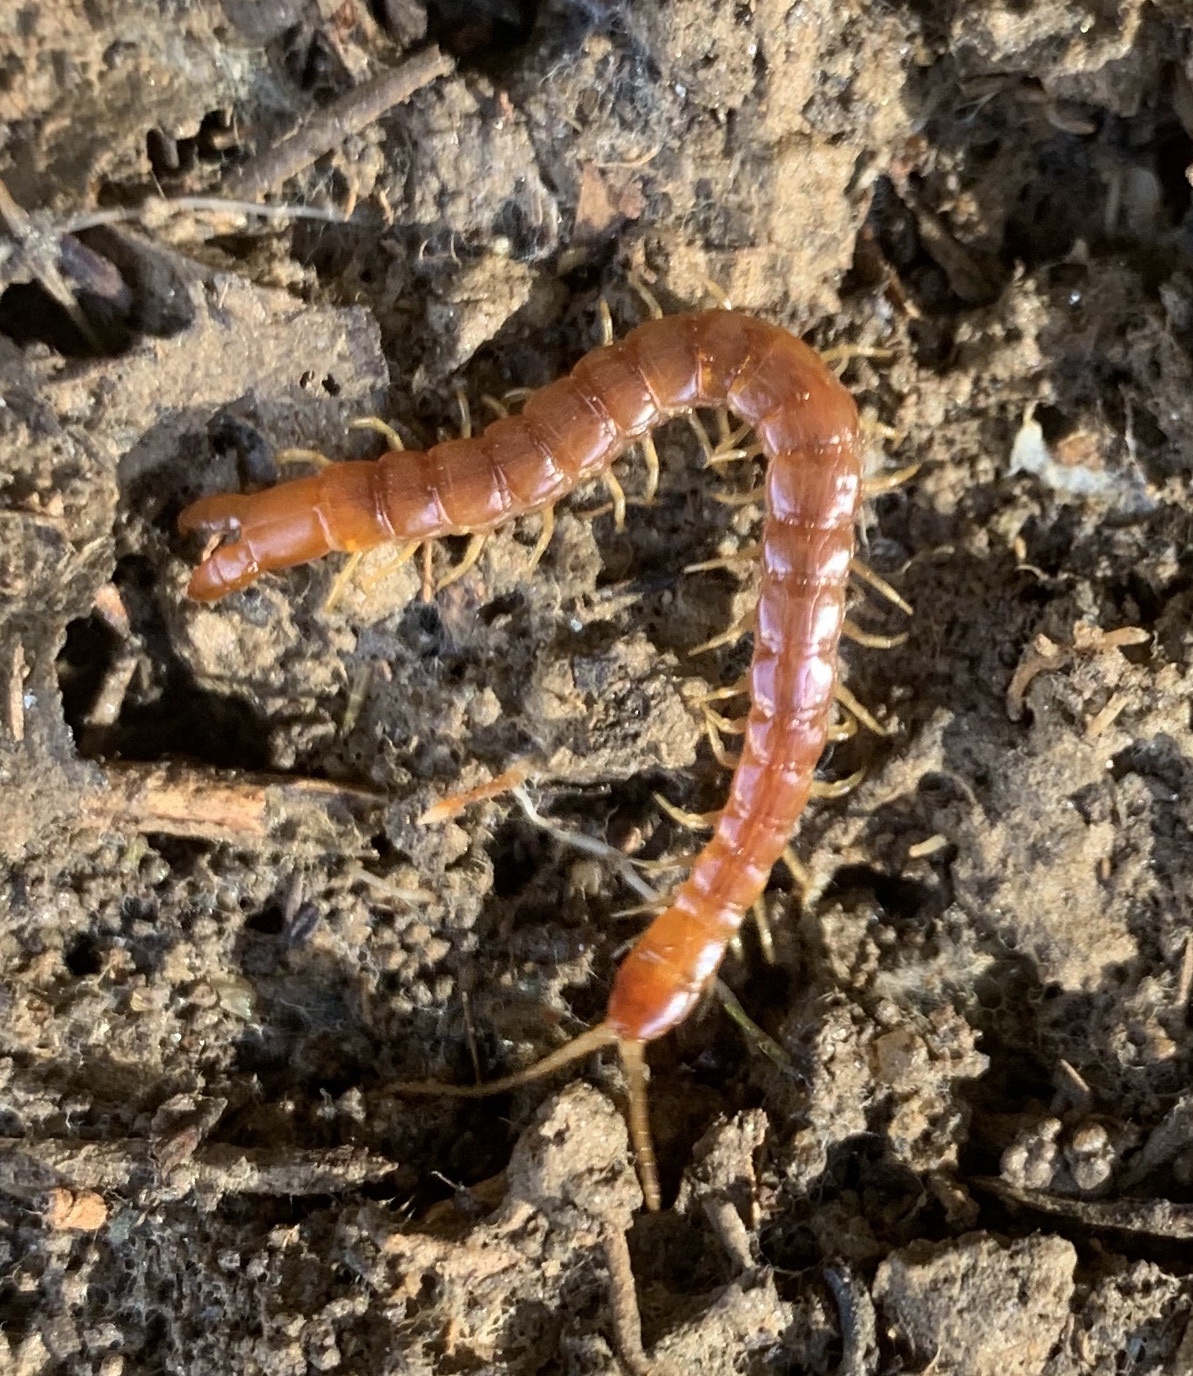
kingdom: Animalia
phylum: Arthropoda
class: Chilopoda
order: Scolopendromorpha
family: Cryptopidae
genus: Theatops
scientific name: Theatops posticus
